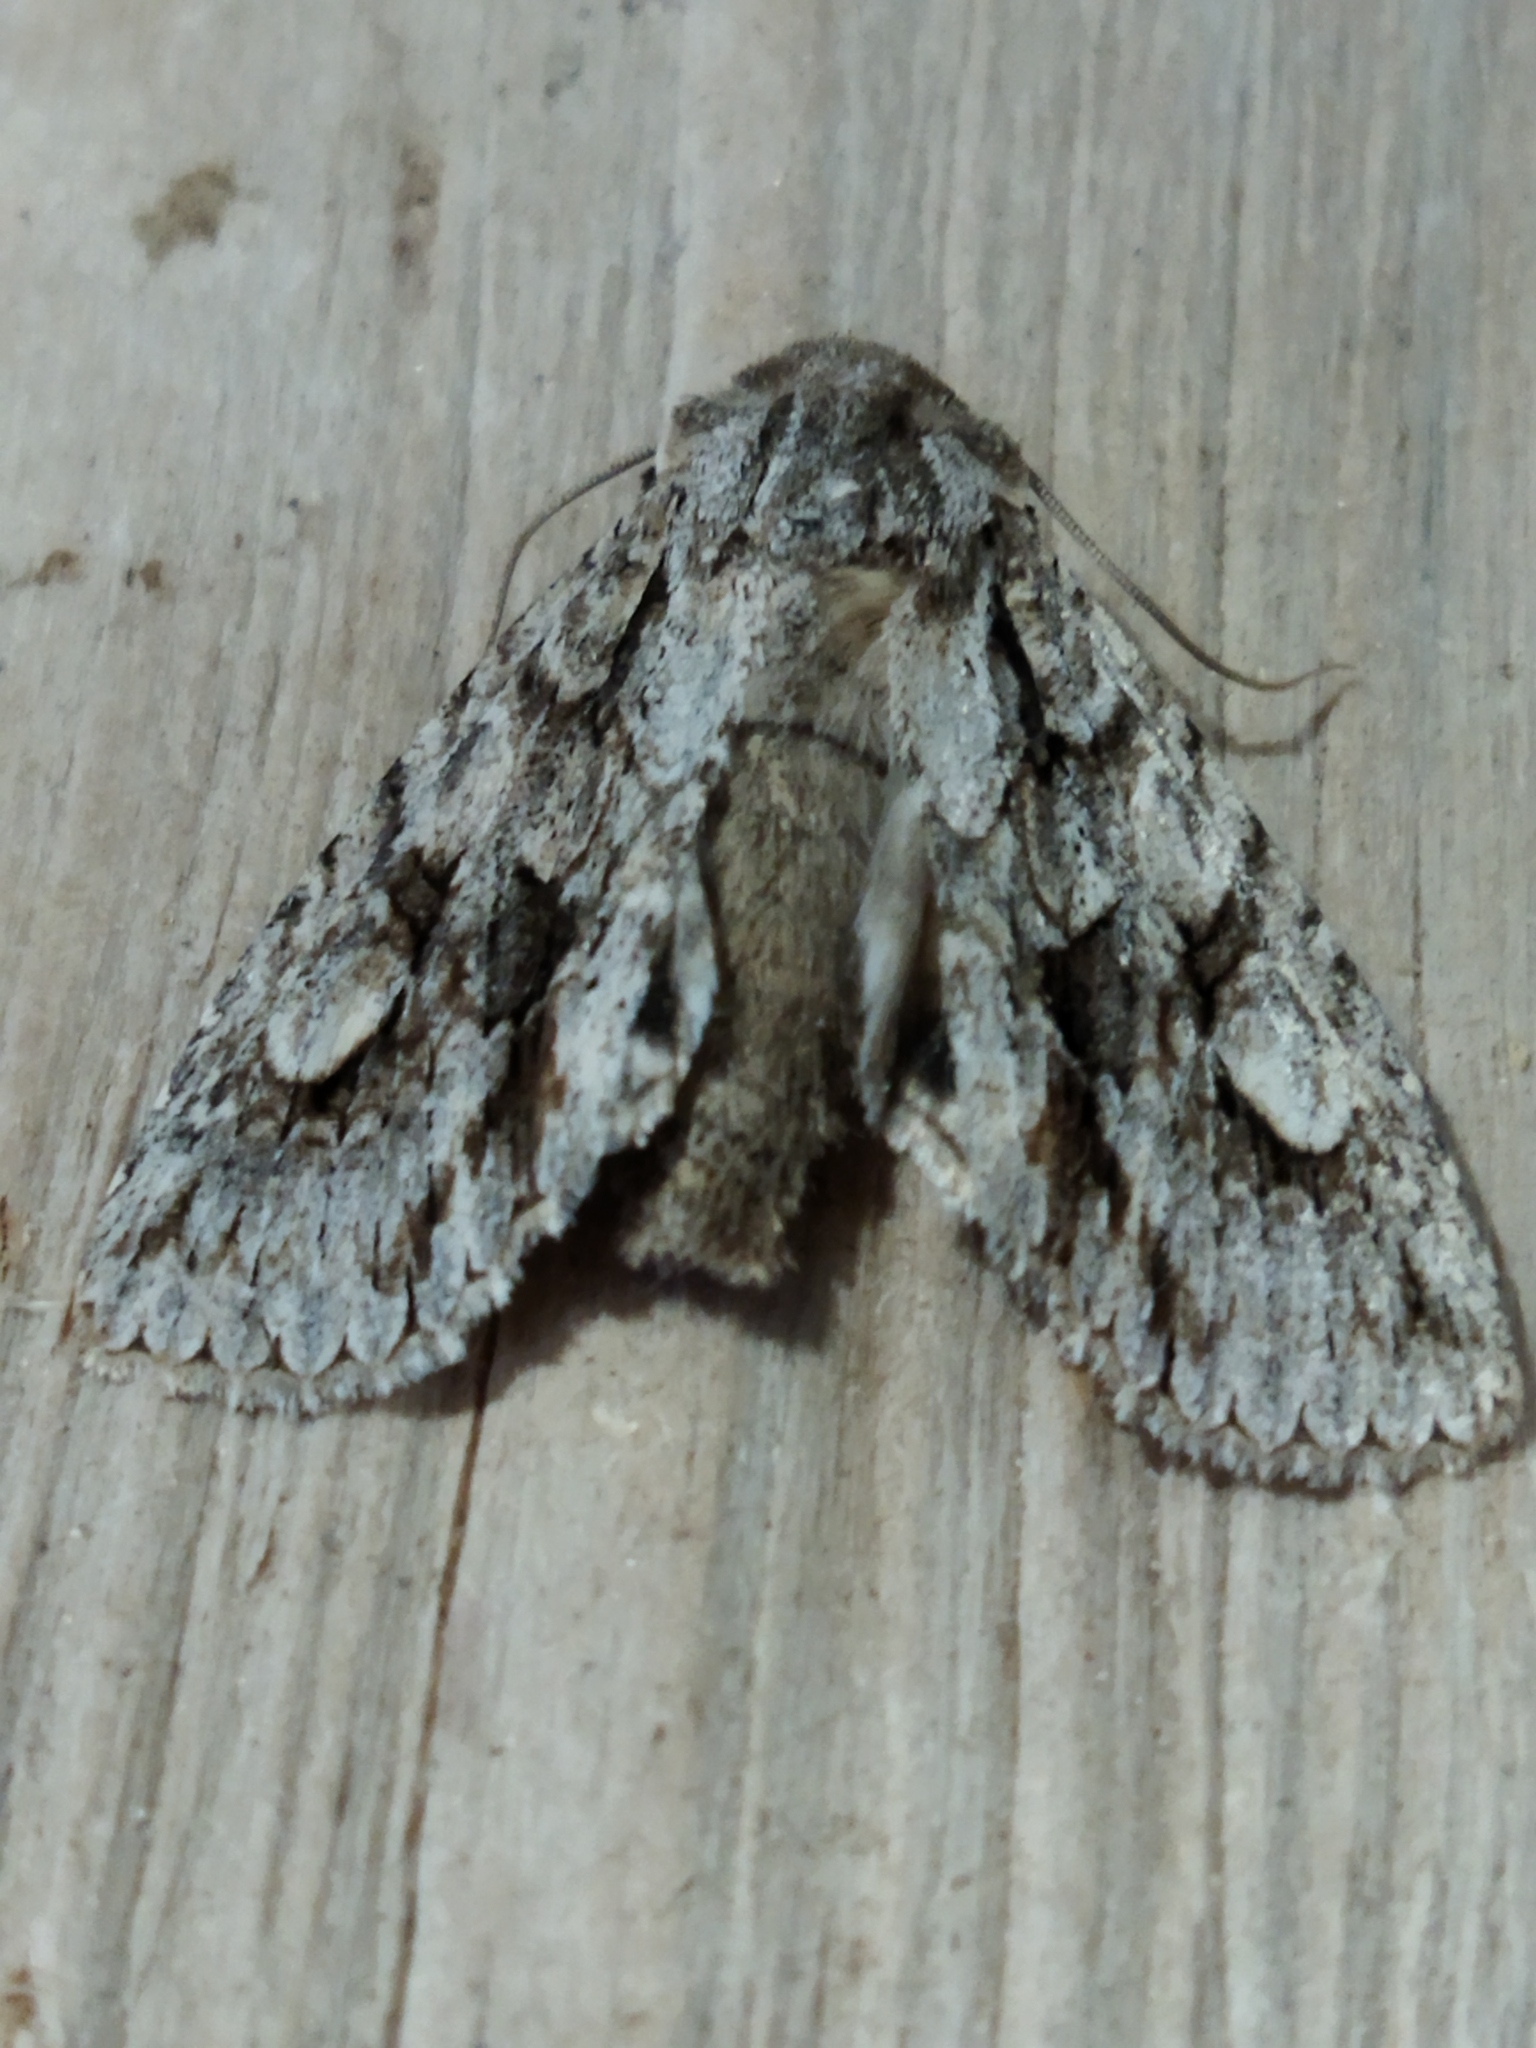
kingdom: Animalia
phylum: Arthropoda
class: Insecta
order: Lepidoptera
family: Noctuidae
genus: Meganephria
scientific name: Meganephria bimaculosa
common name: Double-spot brocade
